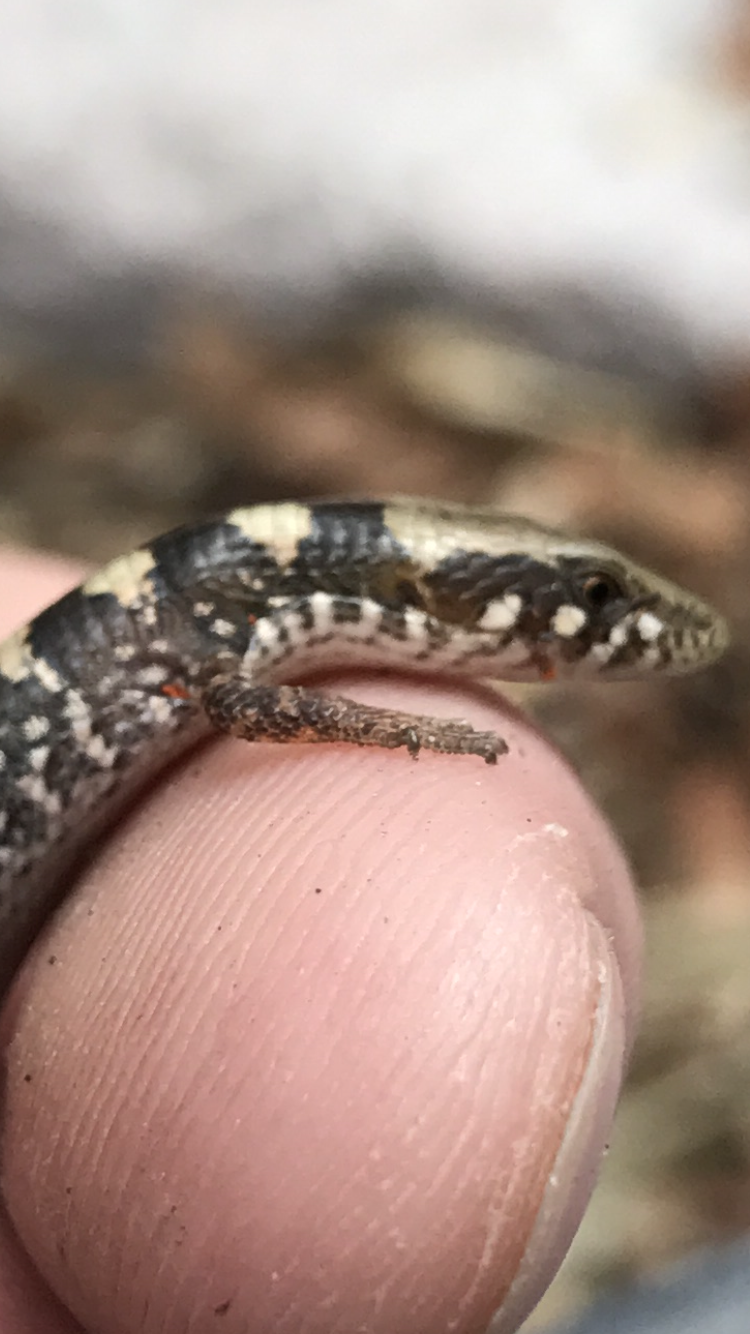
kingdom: Animalia
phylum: Chordata
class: Squamata
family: Anguidae
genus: Elgaria
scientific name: Elgaria kingii
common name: Madrean alligator lizard
